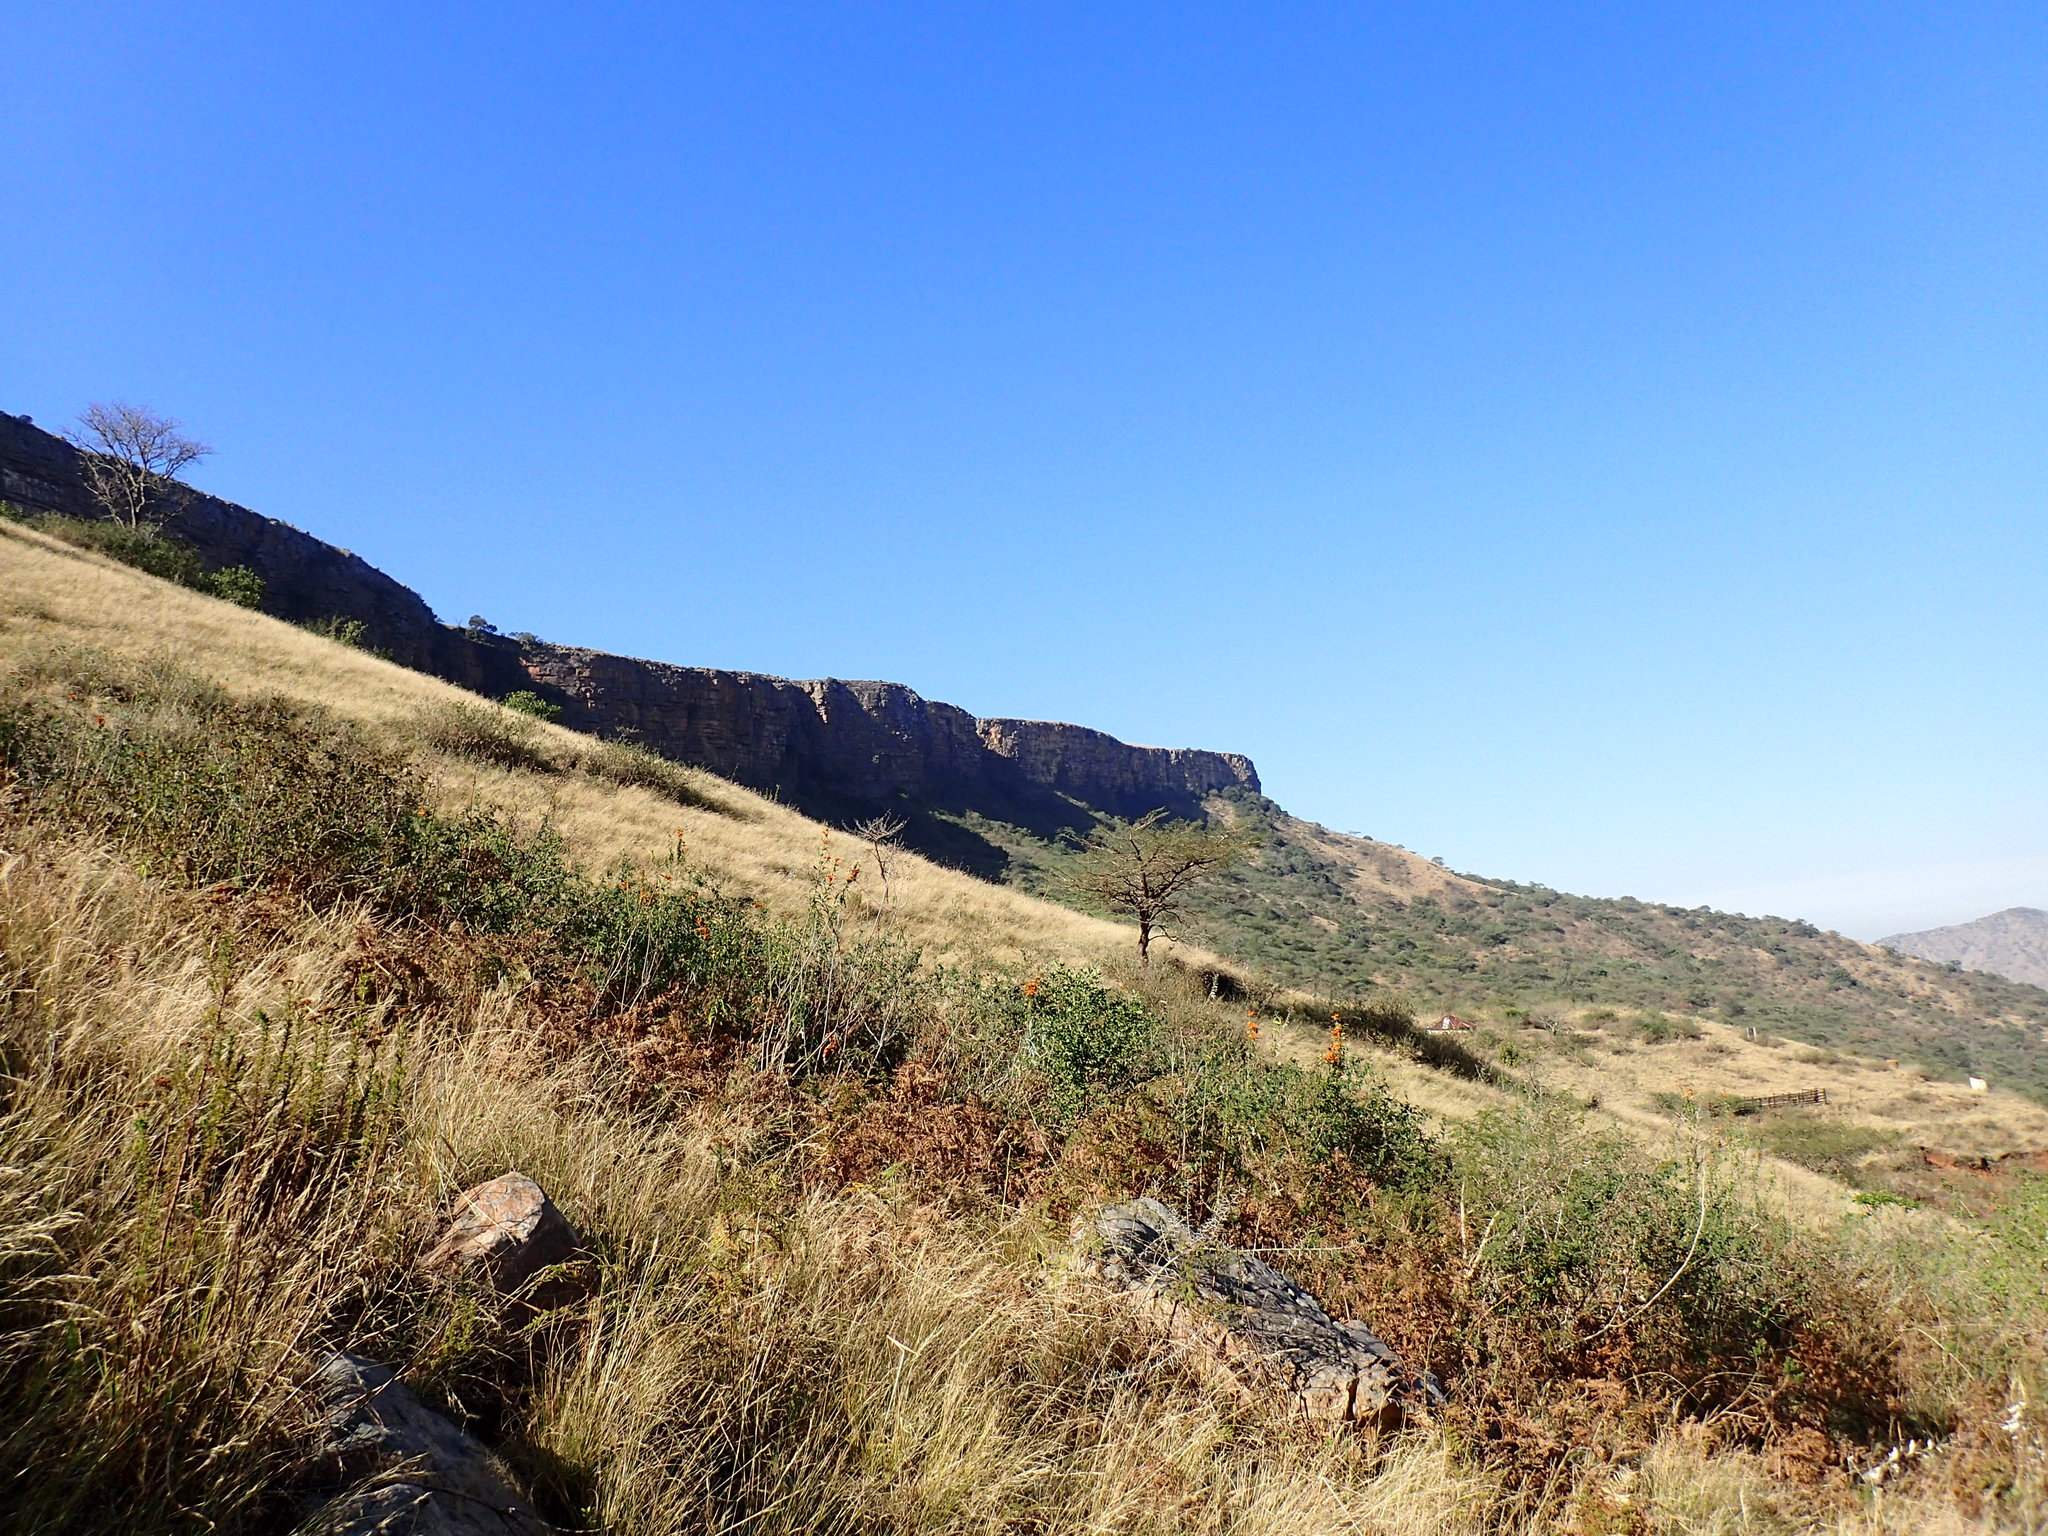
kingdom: Plantae
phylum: Tracheophyta
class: Liliopsida
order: Poales
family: Poaceae
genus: Aristida
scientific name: Aristida junciformis
